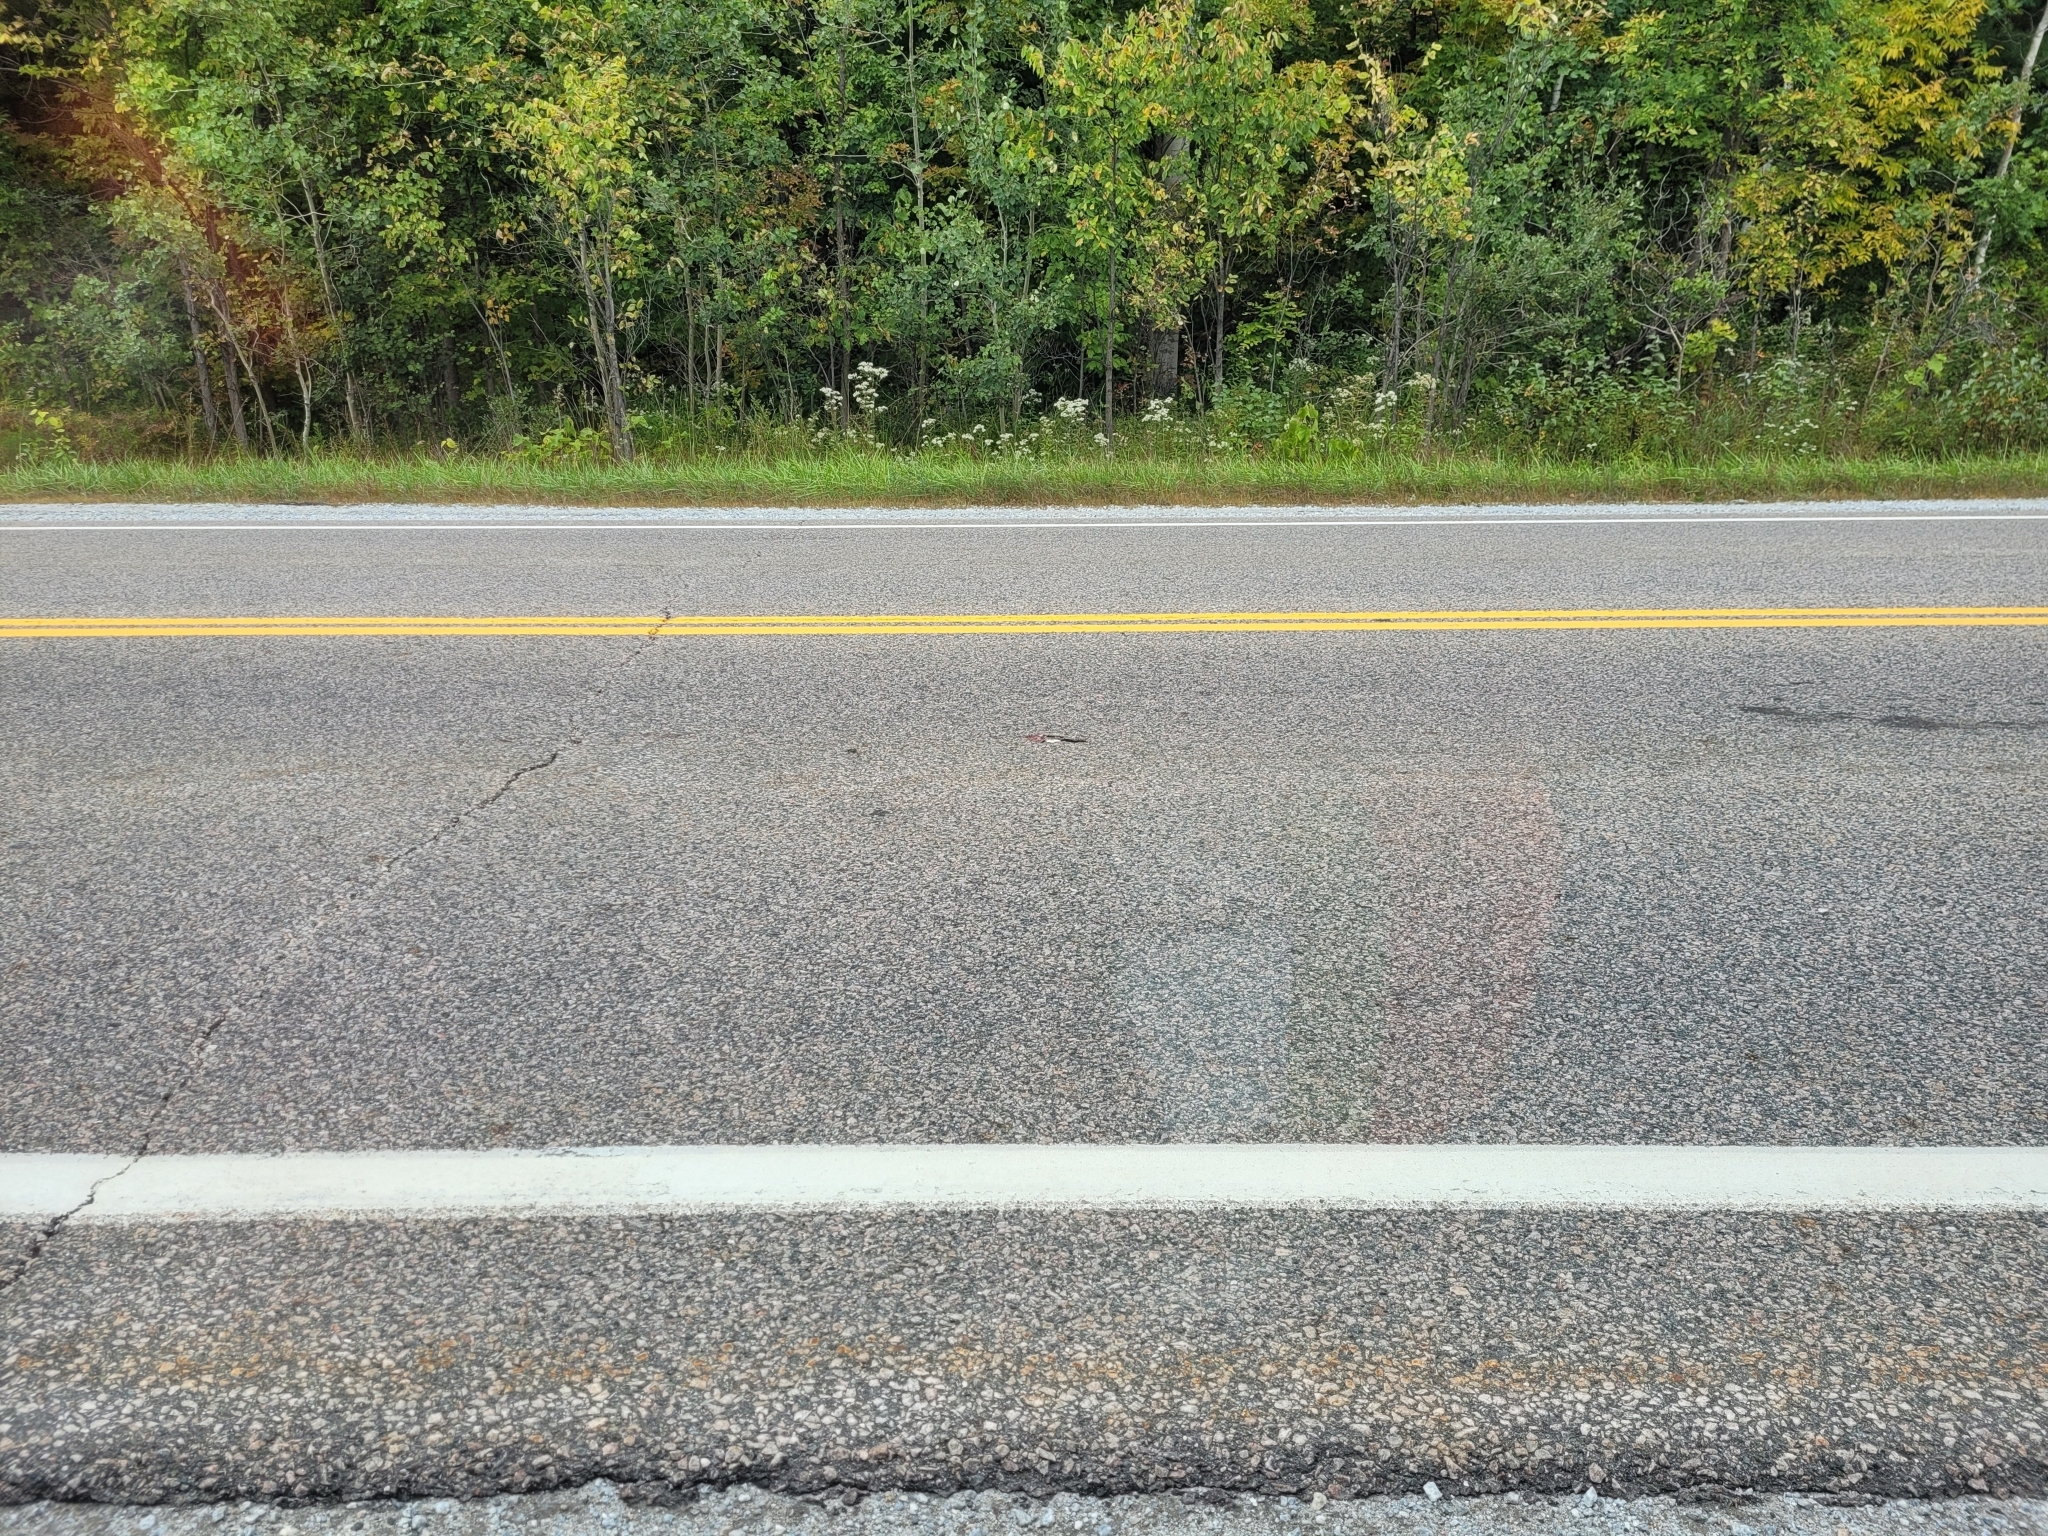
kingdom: Animalia
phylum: Chordata
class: Squamata
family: Colubridae
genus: Nerodia
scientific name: Nerodia sipedon
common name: Northern water snake
